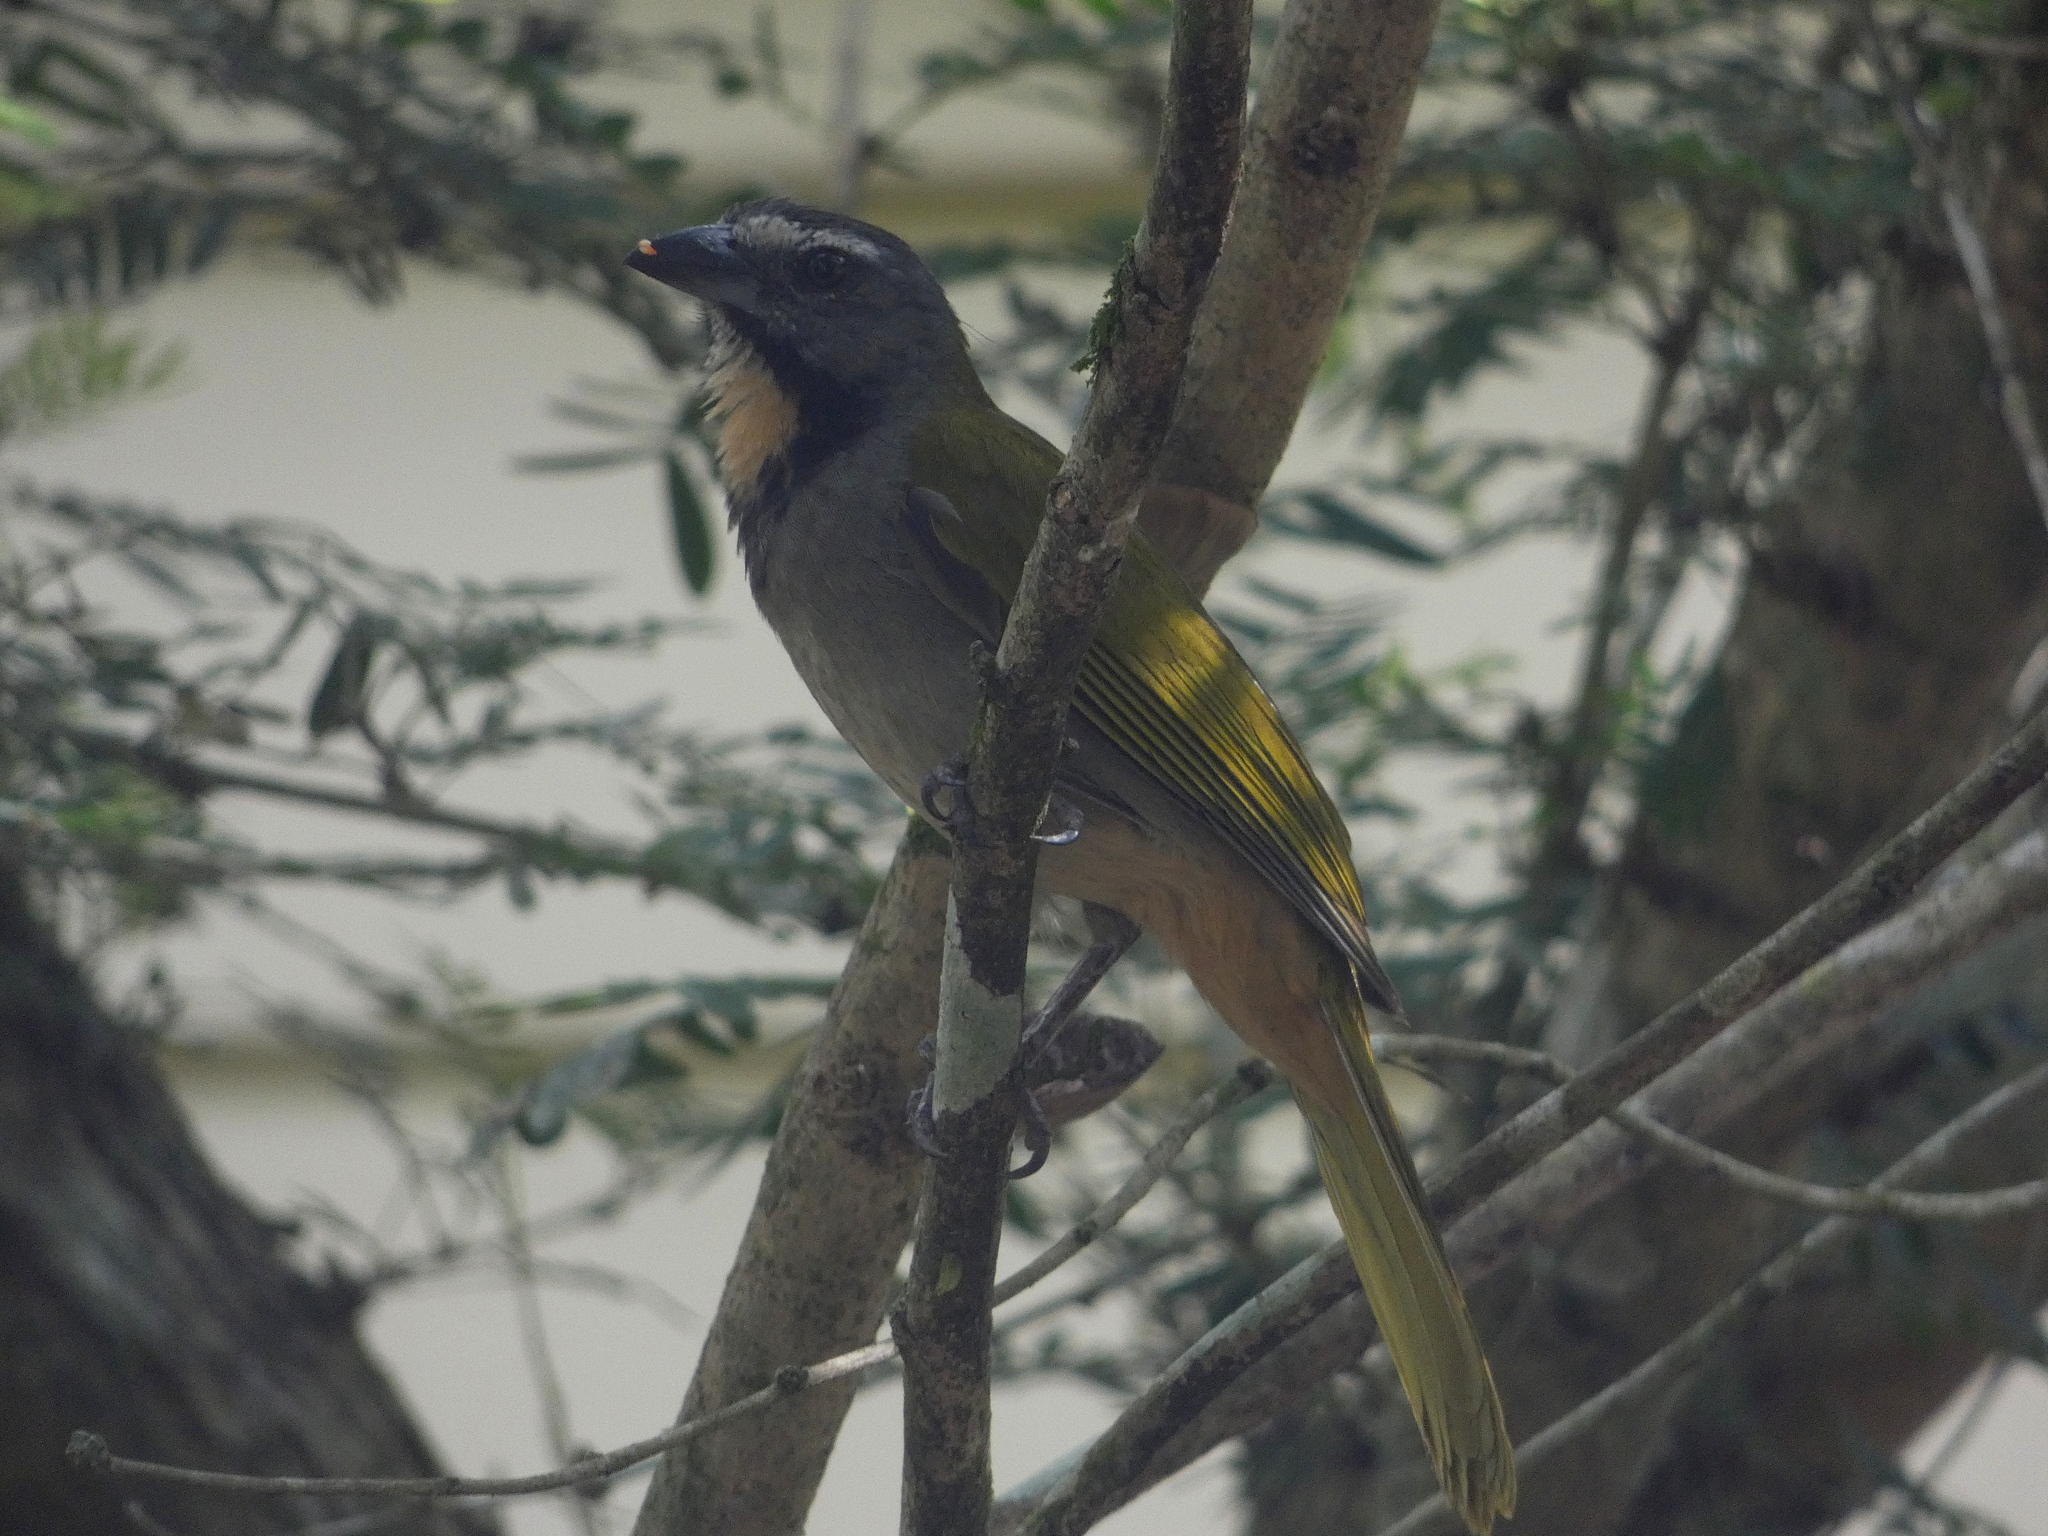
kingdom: Animalia
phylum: Chordata
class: Aves
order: Passeriformes
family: Thraupidae
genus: Saltator
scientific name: Saltator maximus
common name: Buff-throated saltator
